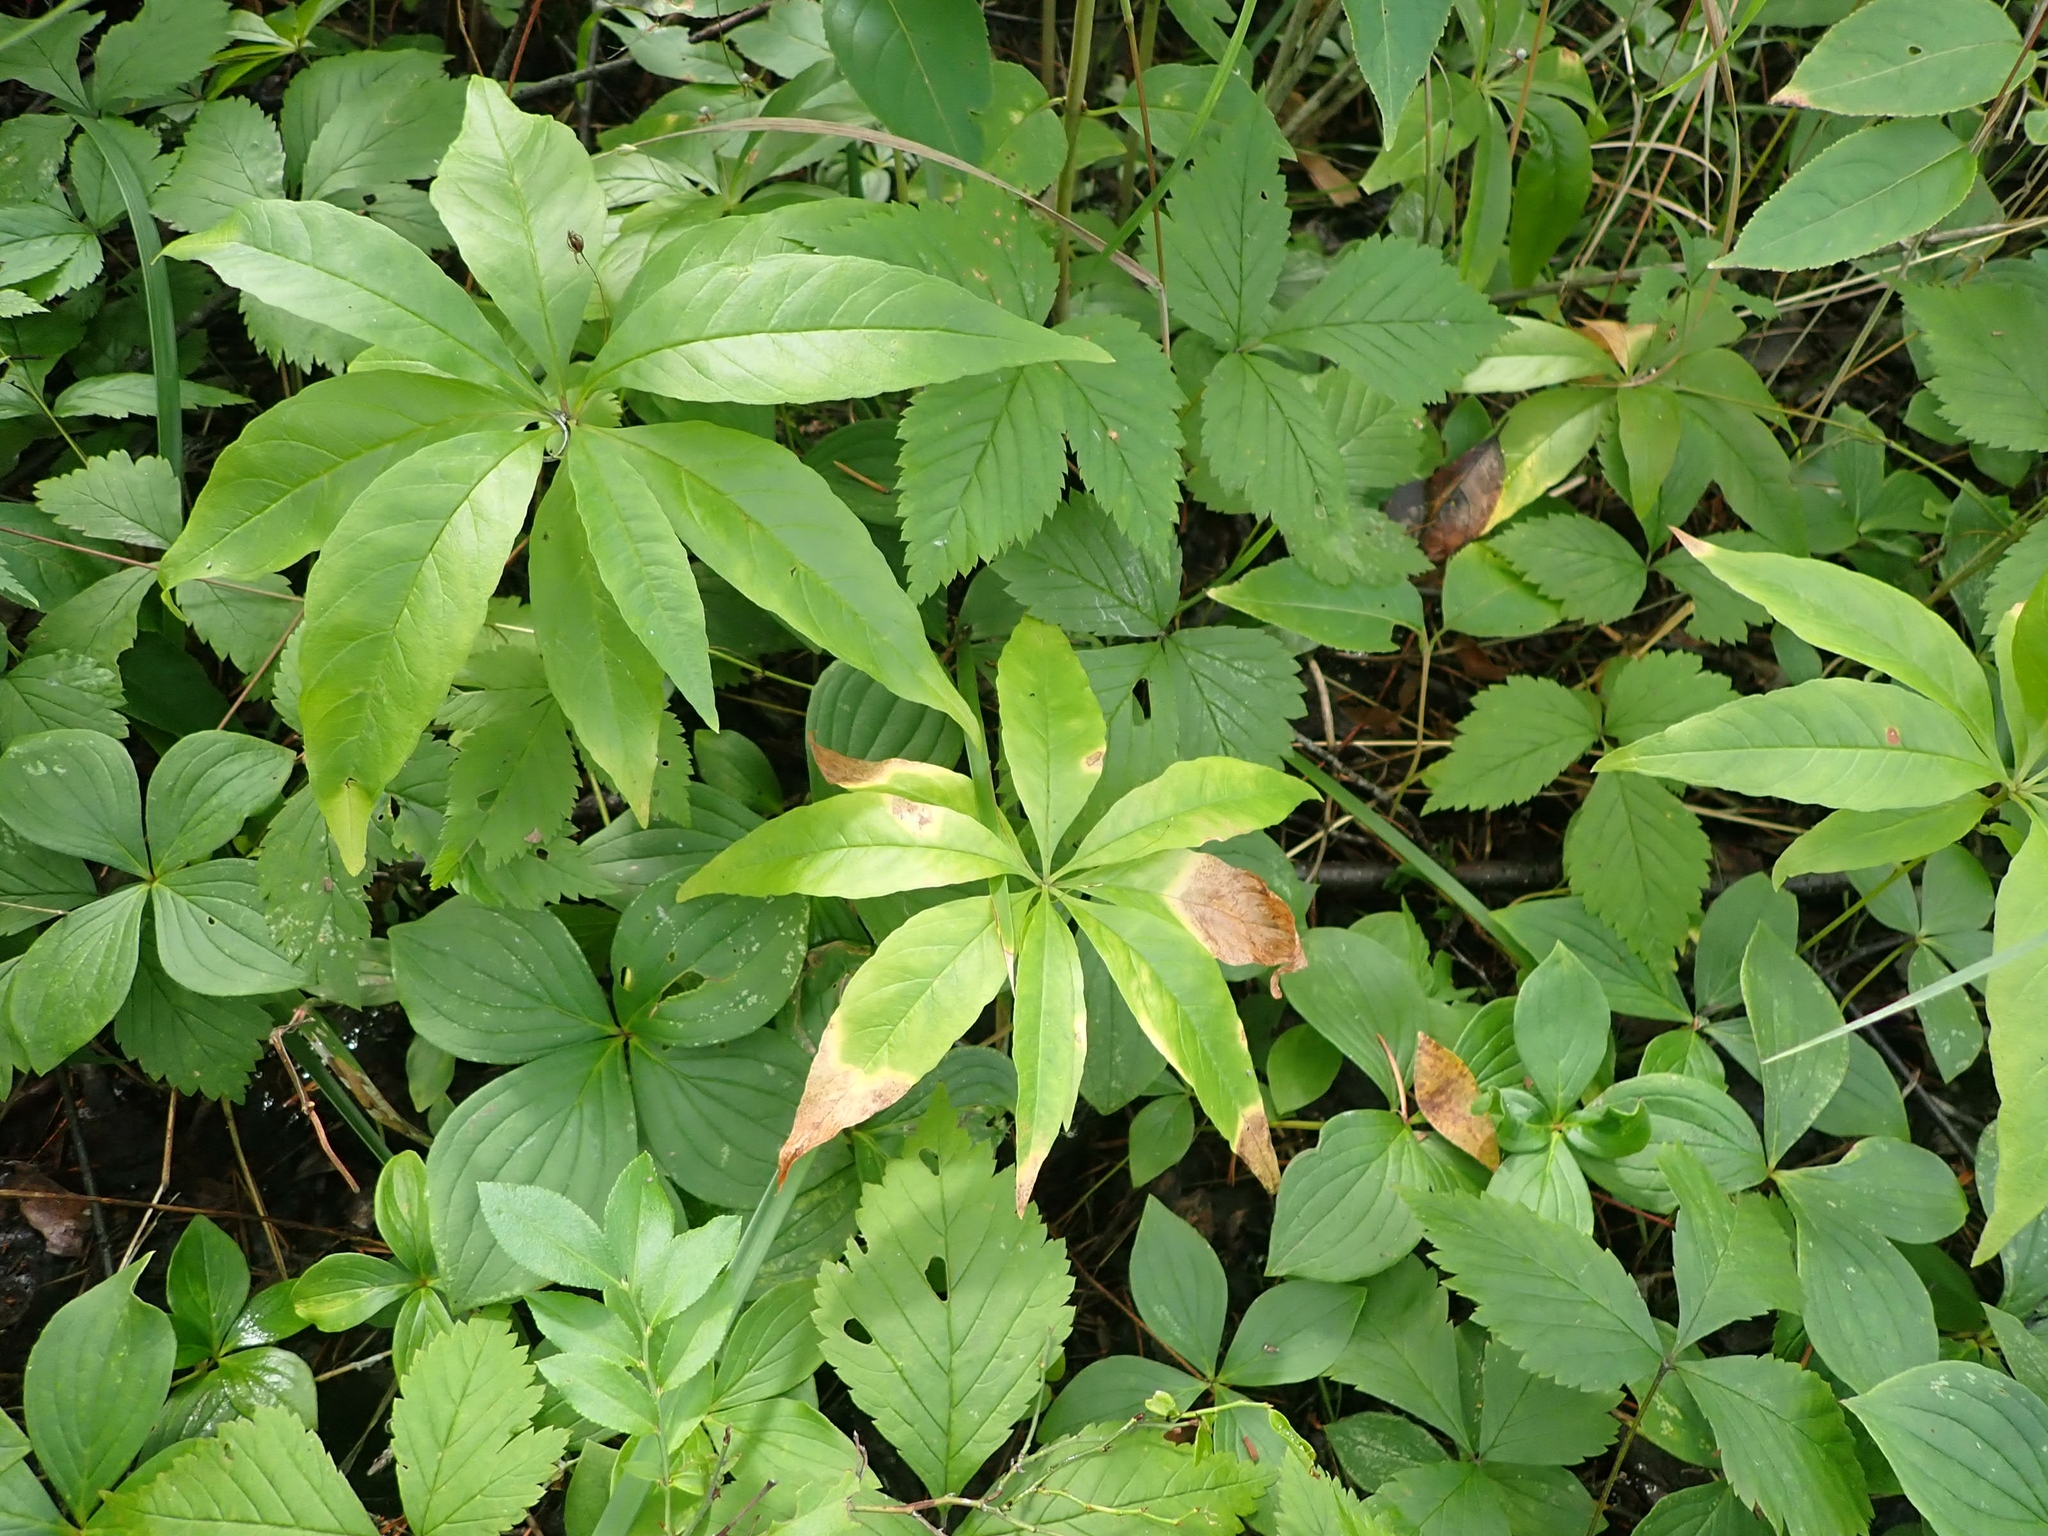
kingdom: Plantae
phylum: Tracheophyta
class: Magnoliopsida
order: Ericales
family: Primulaceae
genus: Lysimachia
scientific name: Lysimachia borealis
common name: American starflower
